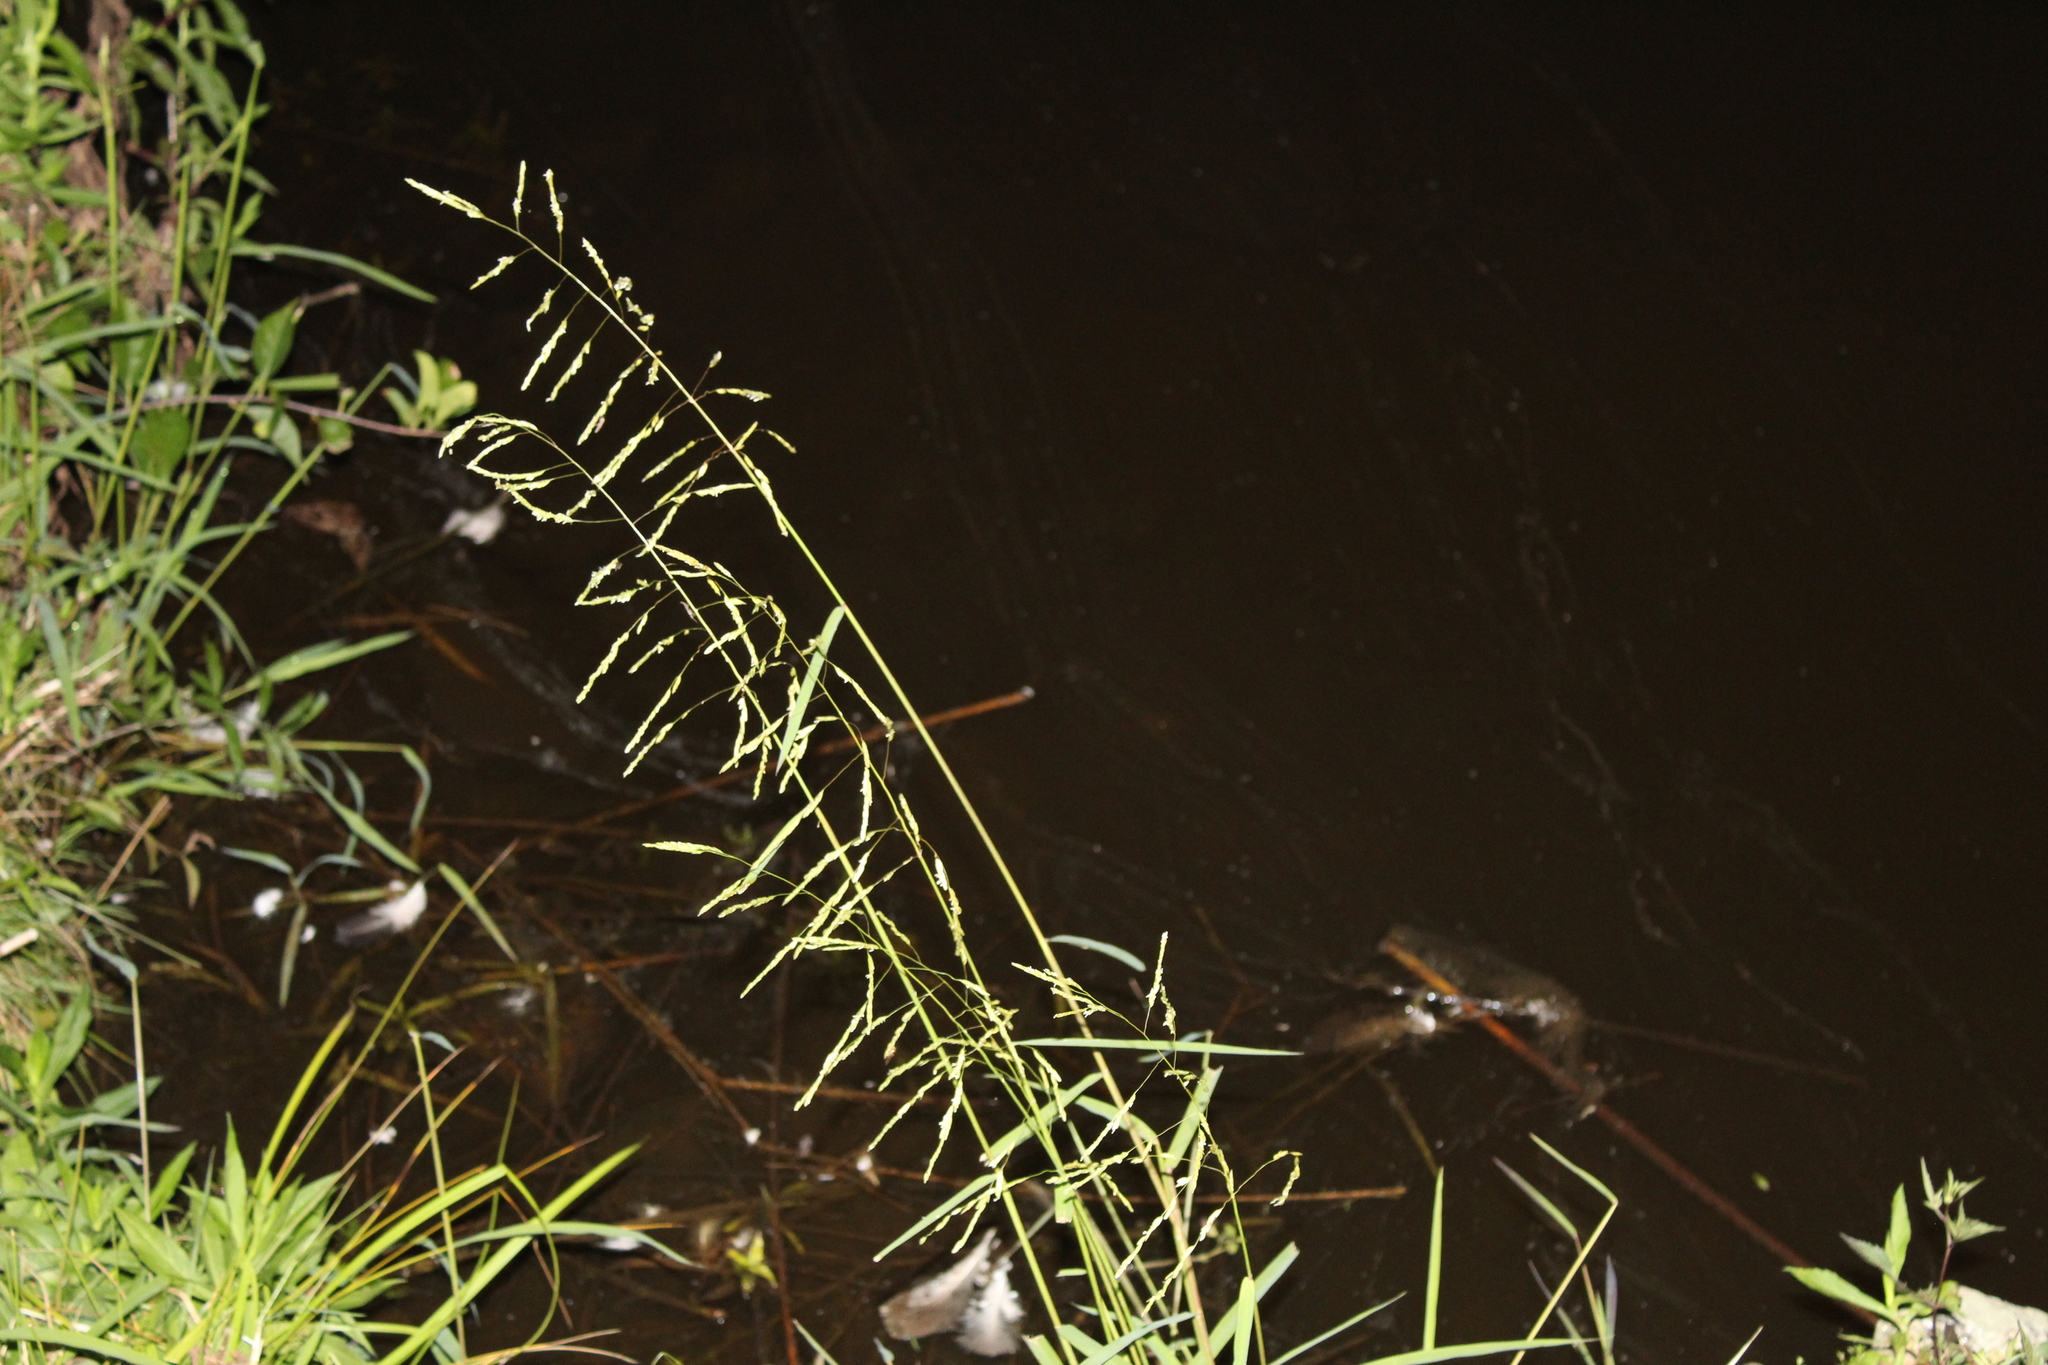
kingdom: Plantae
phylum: Tracheophyta
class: Liliopsida
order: Poales
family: Poaceae
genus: Leersia
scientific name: Leersia oryzoides
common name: Cut-grass
